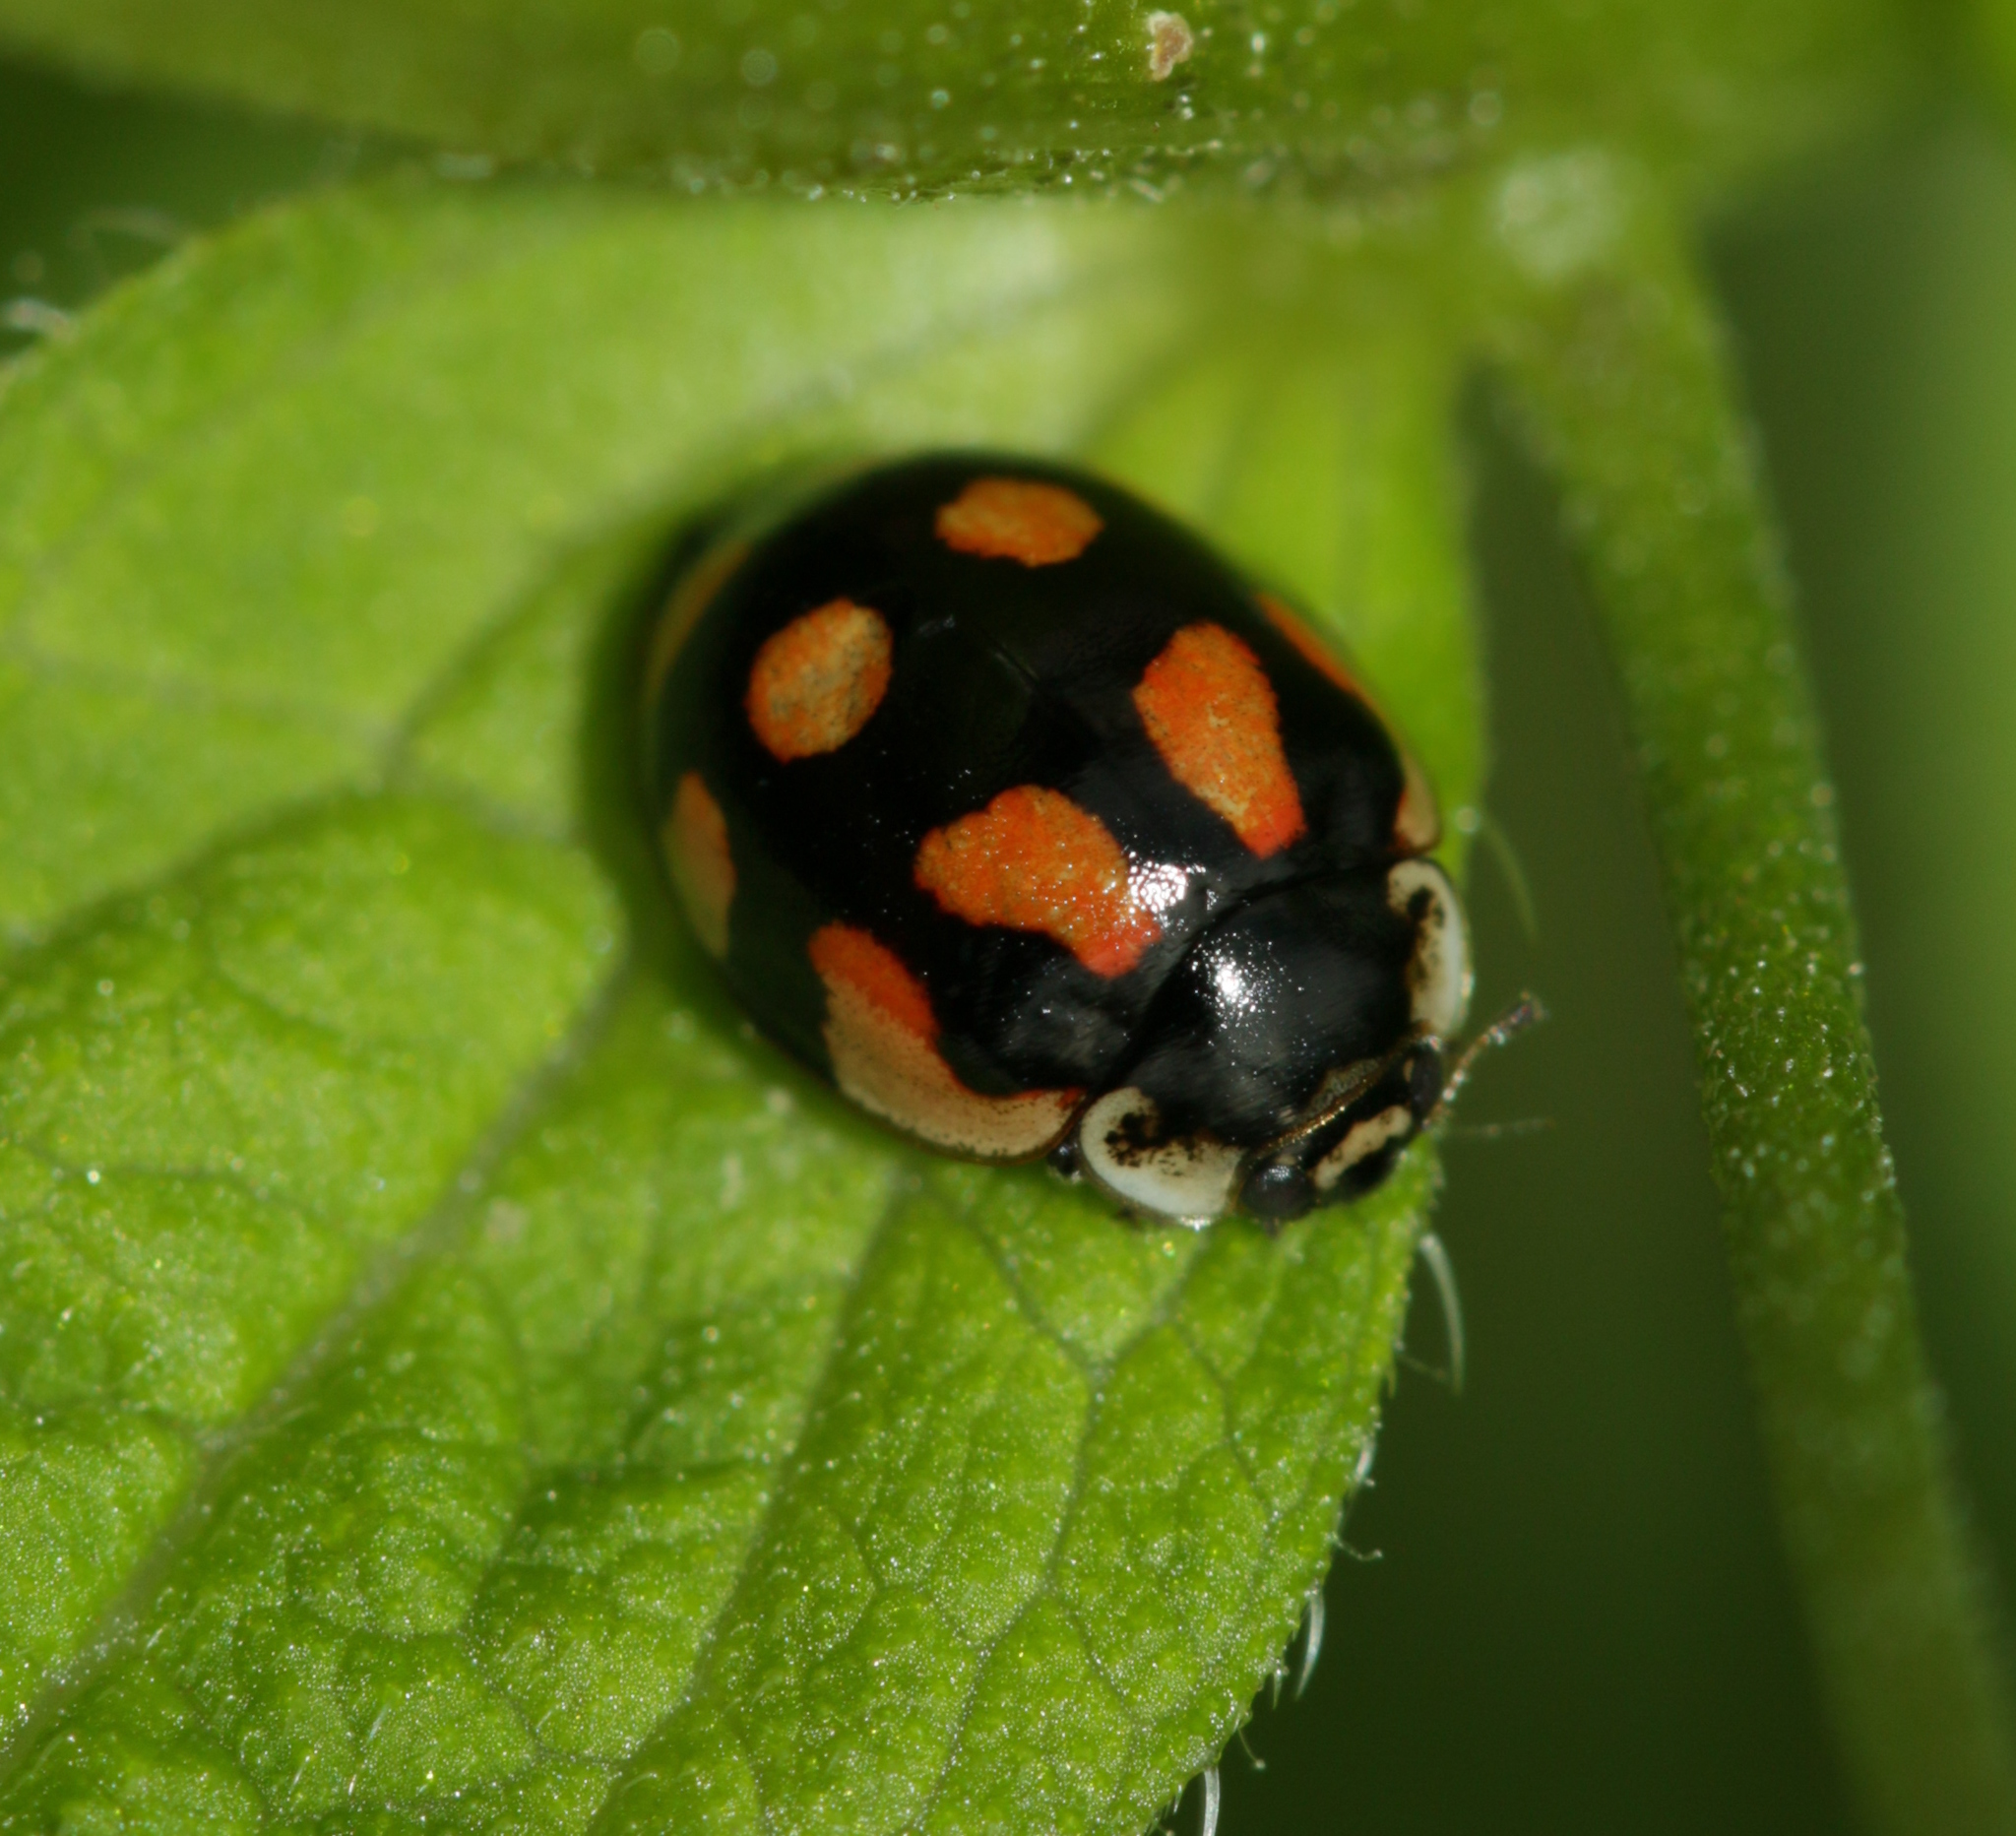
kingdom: Animalia
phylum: Arthropoda
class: Insecta
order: Coleoptera
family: Coccinellidae
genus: Adalia
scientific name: Adalia decempunctata
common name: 10-spot ladybird
